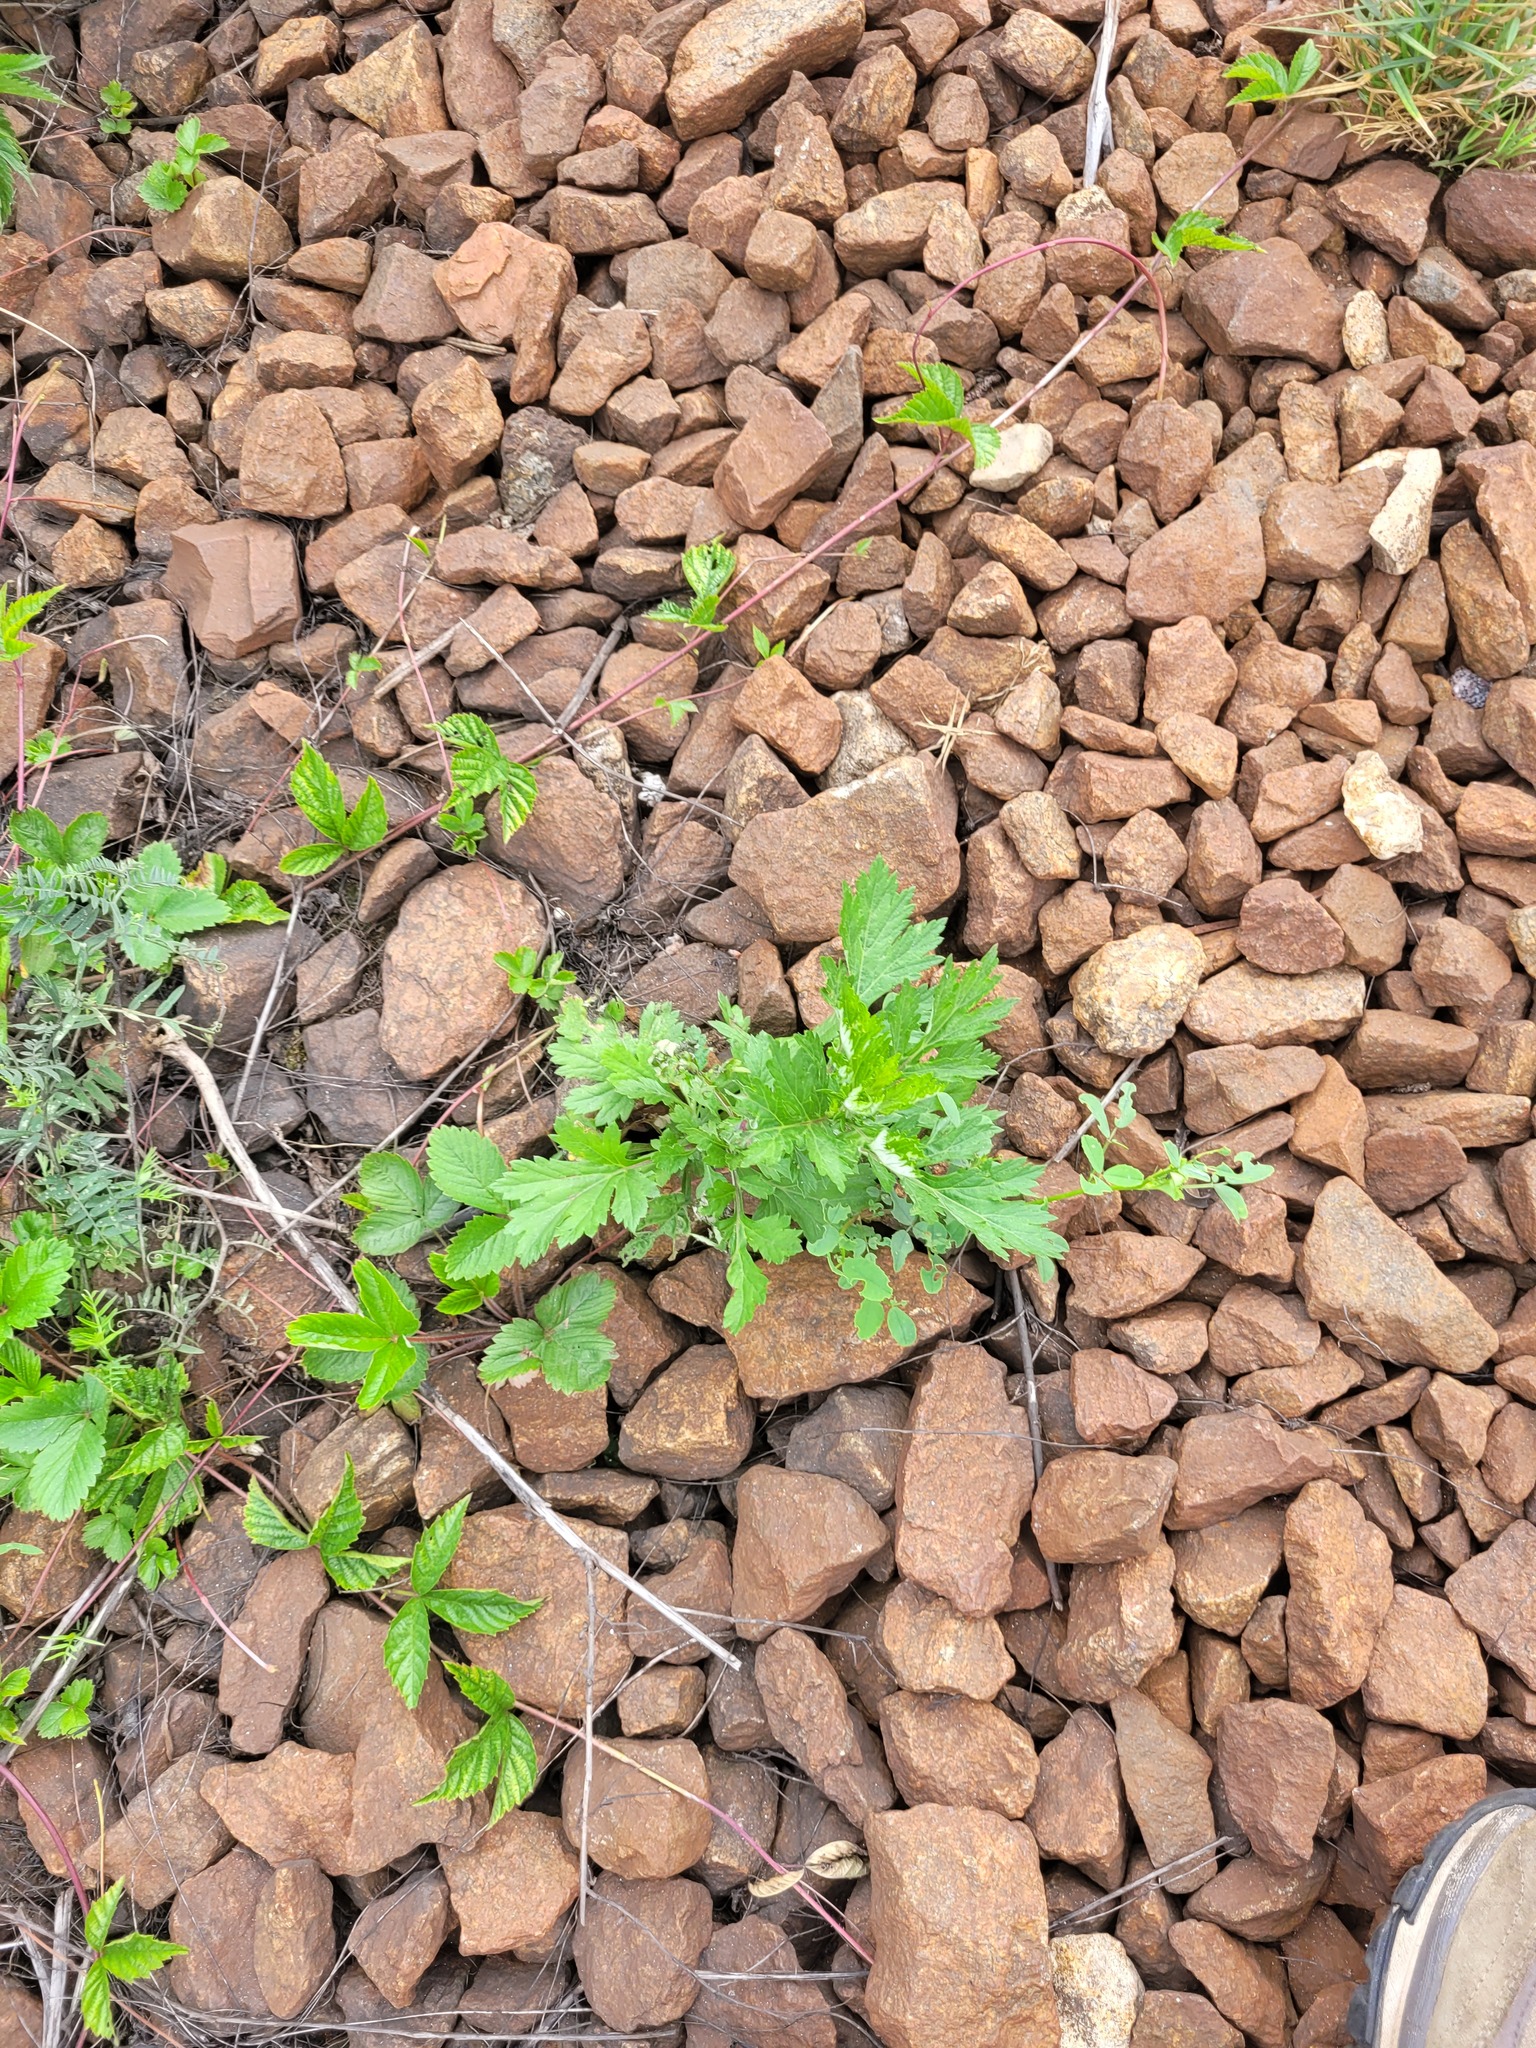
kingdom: Plantae
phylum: Tracheophyta
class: Magnoliopsida
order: Asterales
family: Asteraceae
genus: Artemisia
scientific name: Artemisia vulgaris
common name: Mugwort
